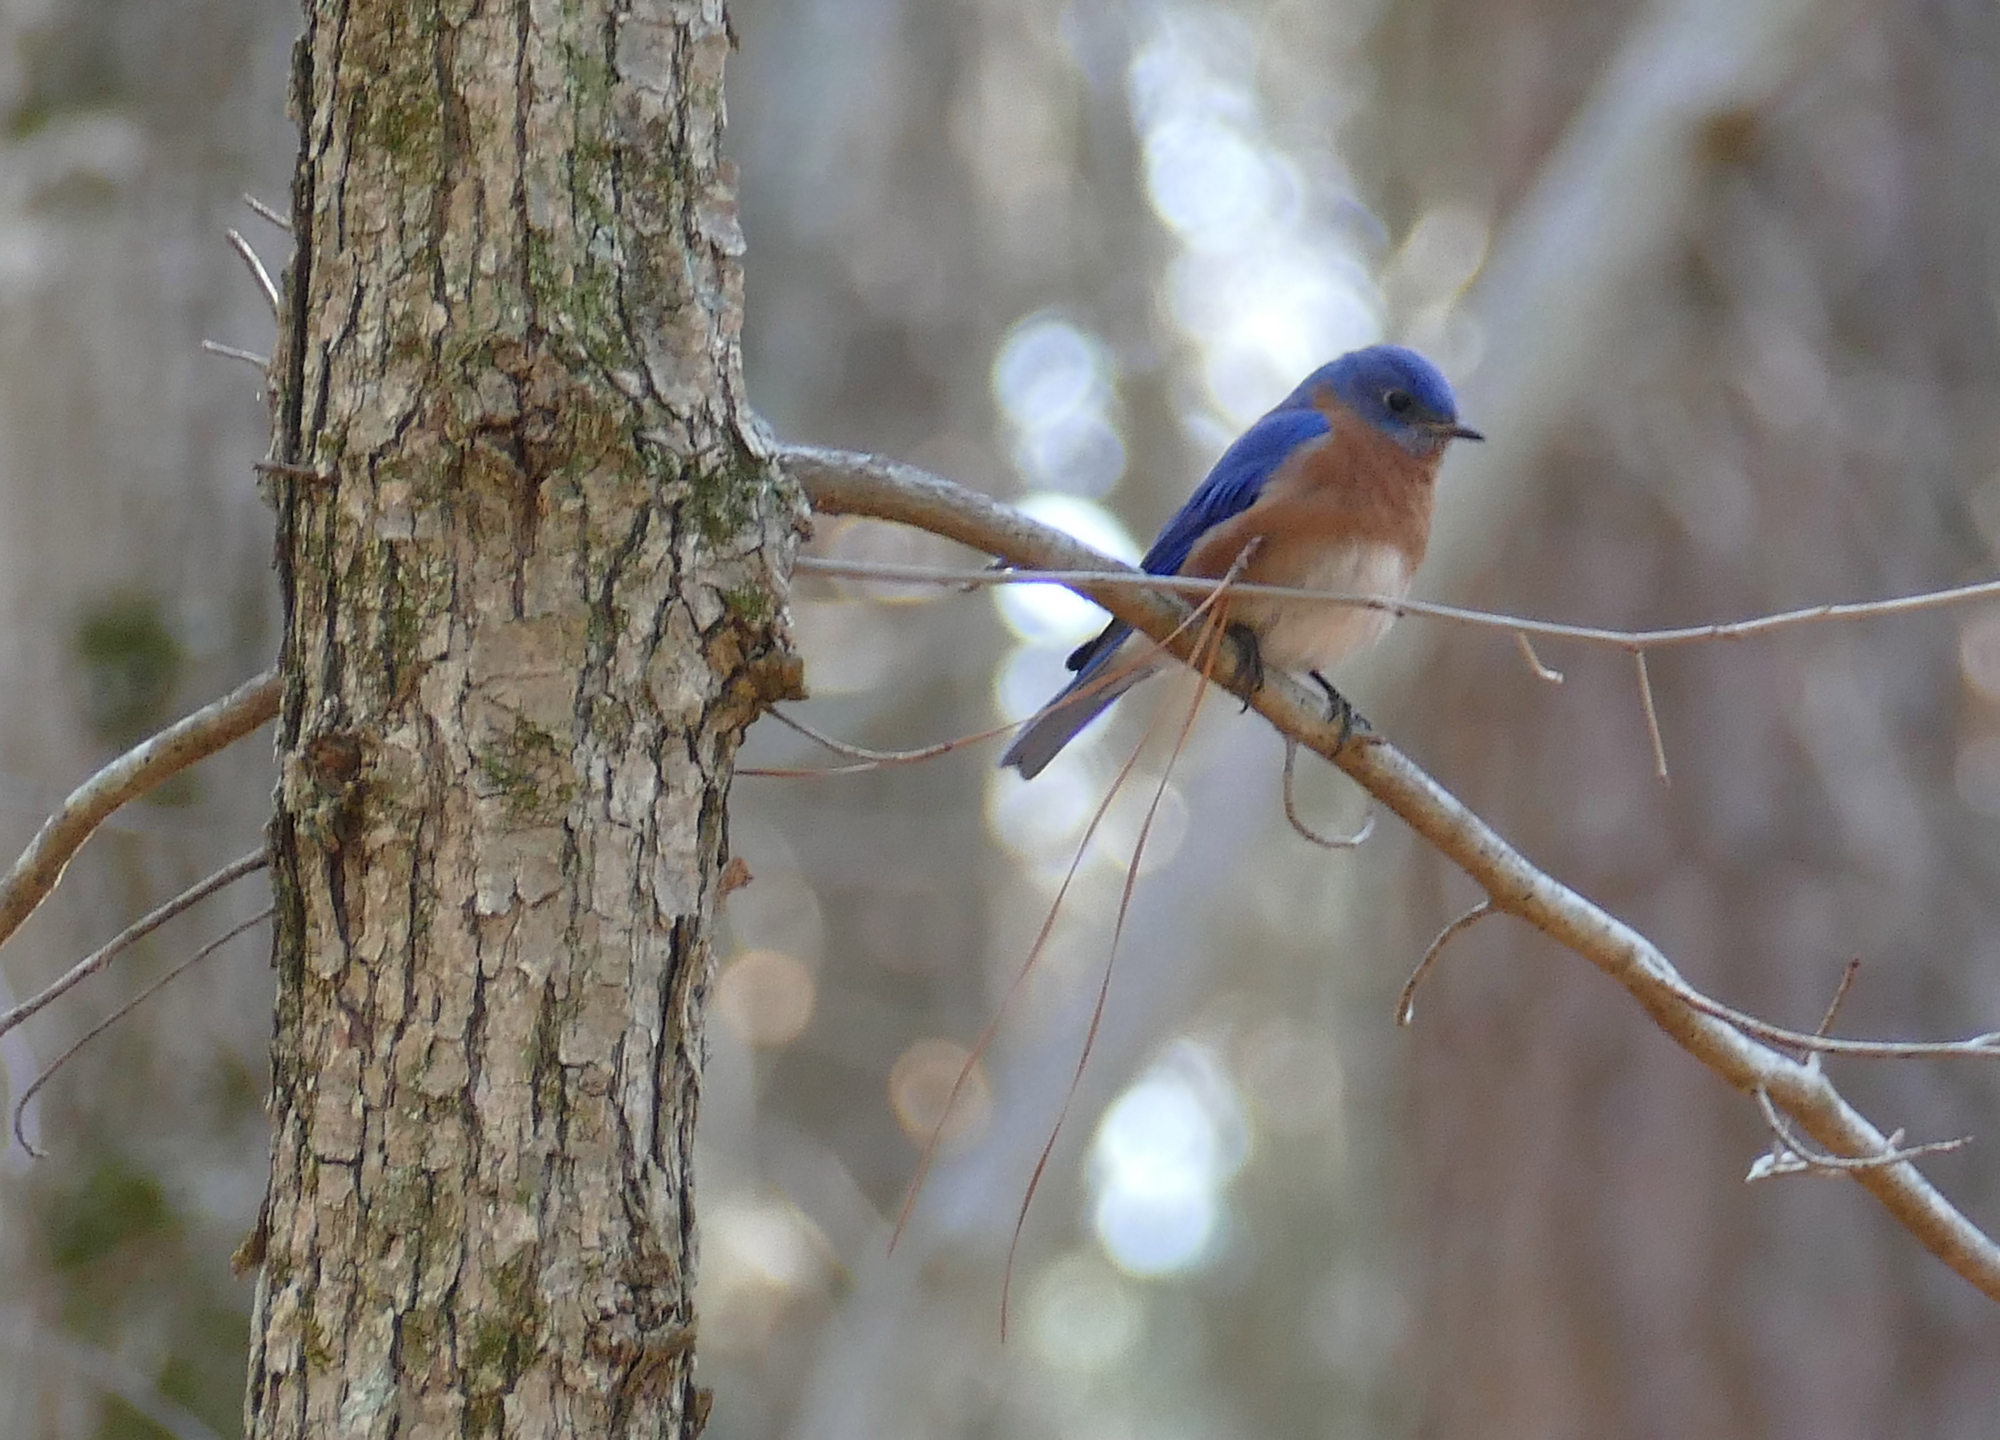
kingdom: Animalia
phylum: Chordata
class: Aves
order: Passeriformes
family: Turdidae
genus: Sialia
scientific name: Sialia sialis
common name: Eastern bluebird
